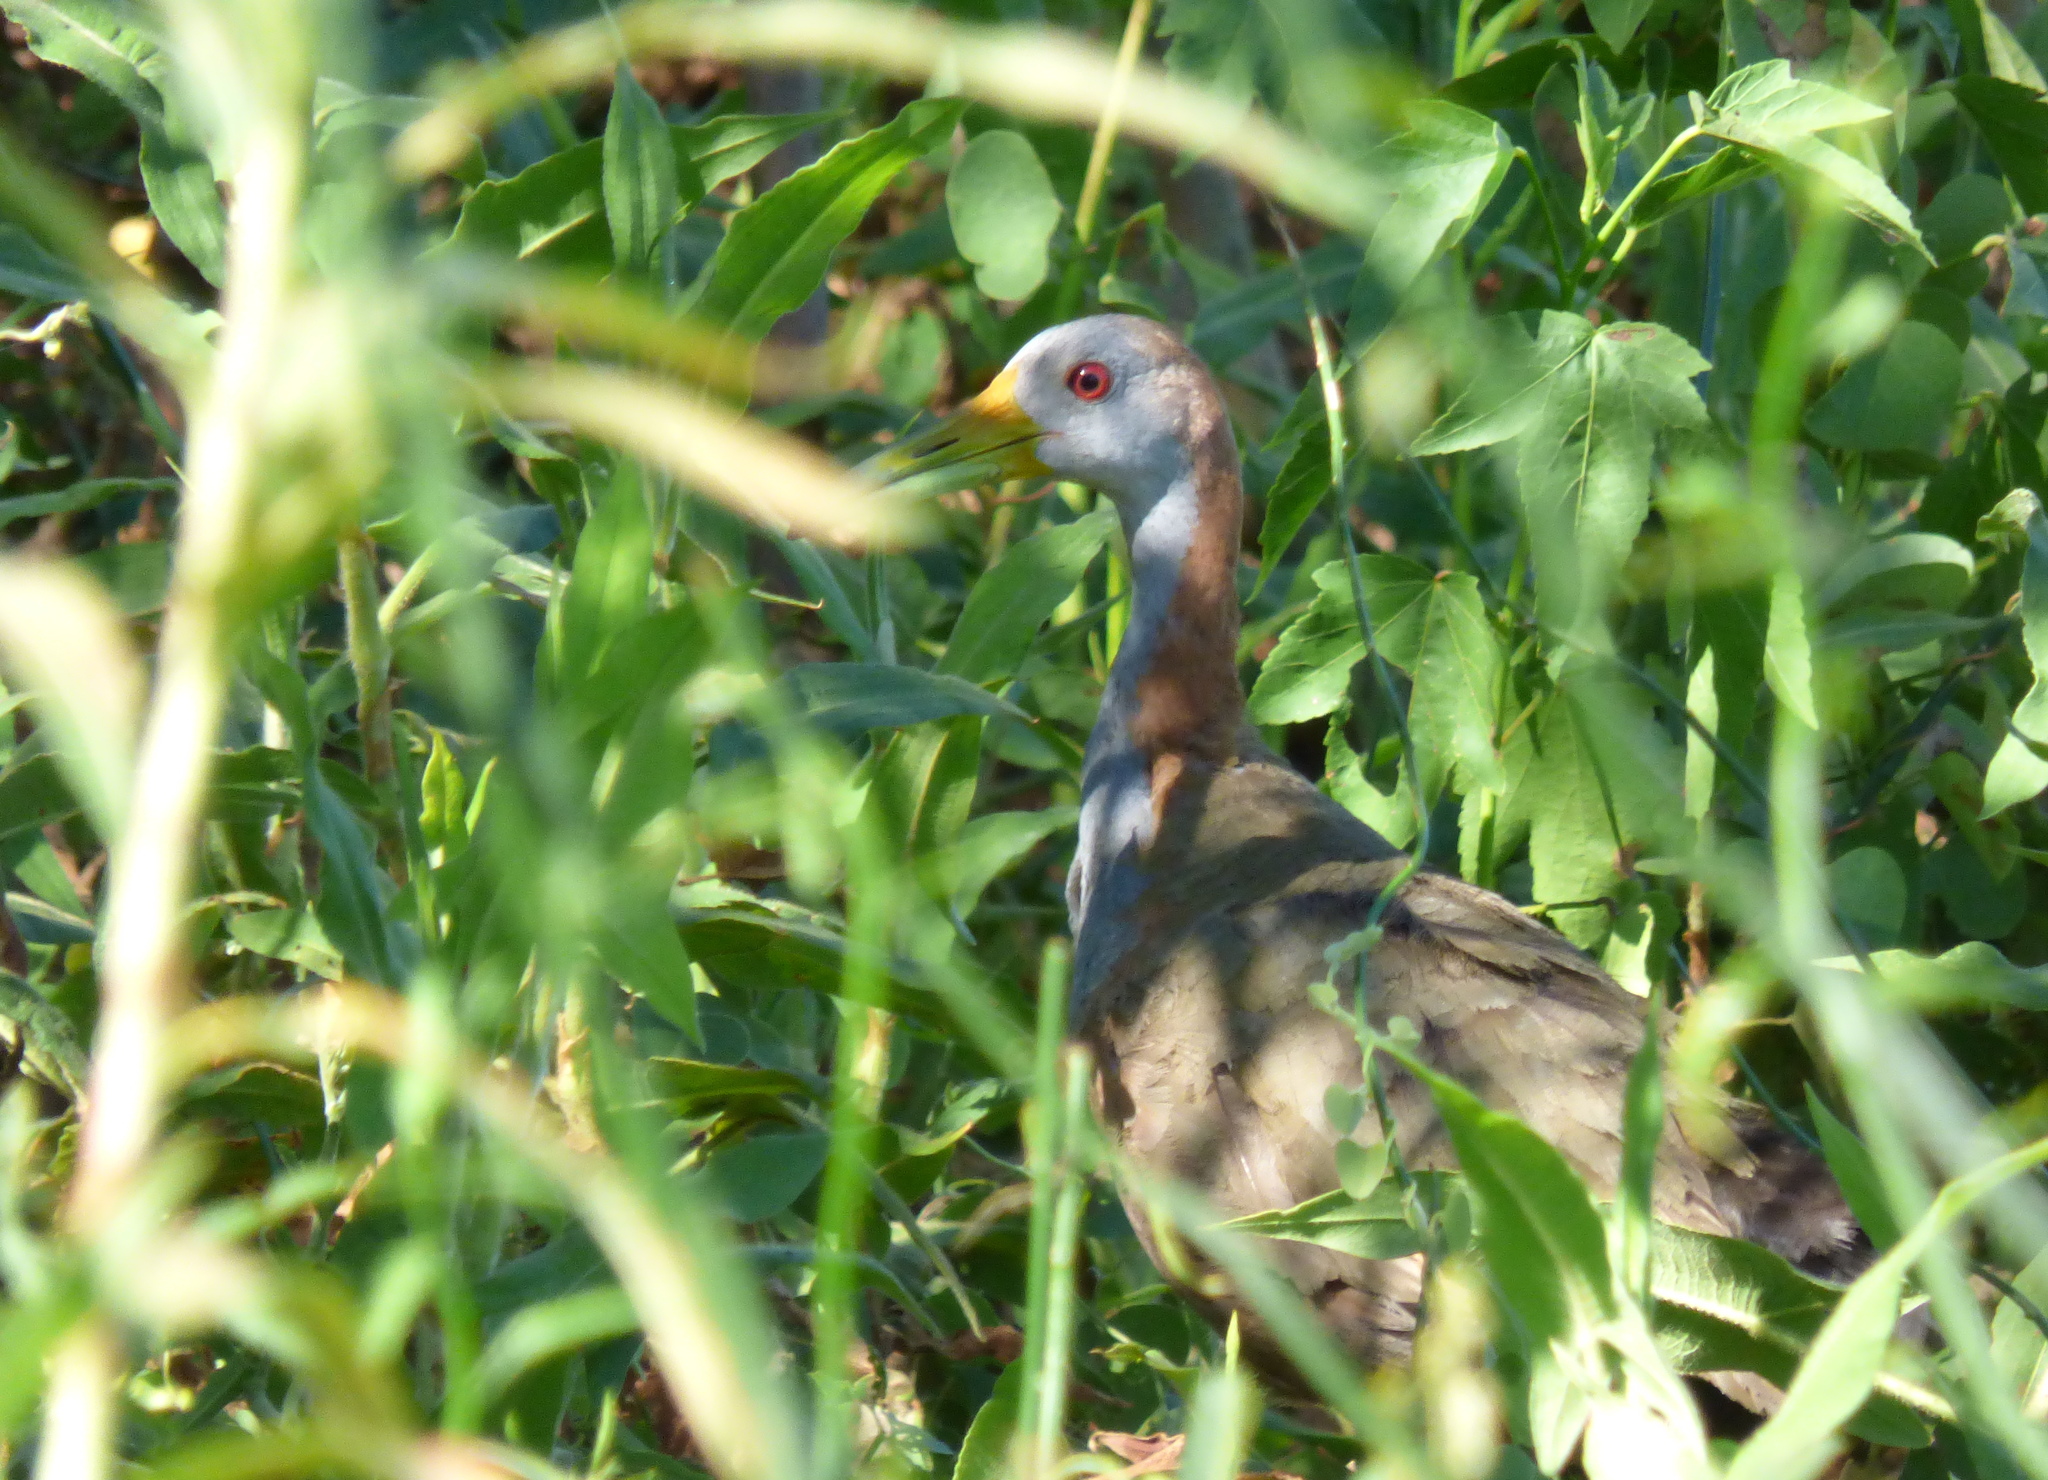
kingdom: Animalia
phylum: Chordata
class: Aves
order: Gruiformes
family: Rallidae
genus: Aramides
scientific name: Aramides ypecaha
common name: Giant wood rail
